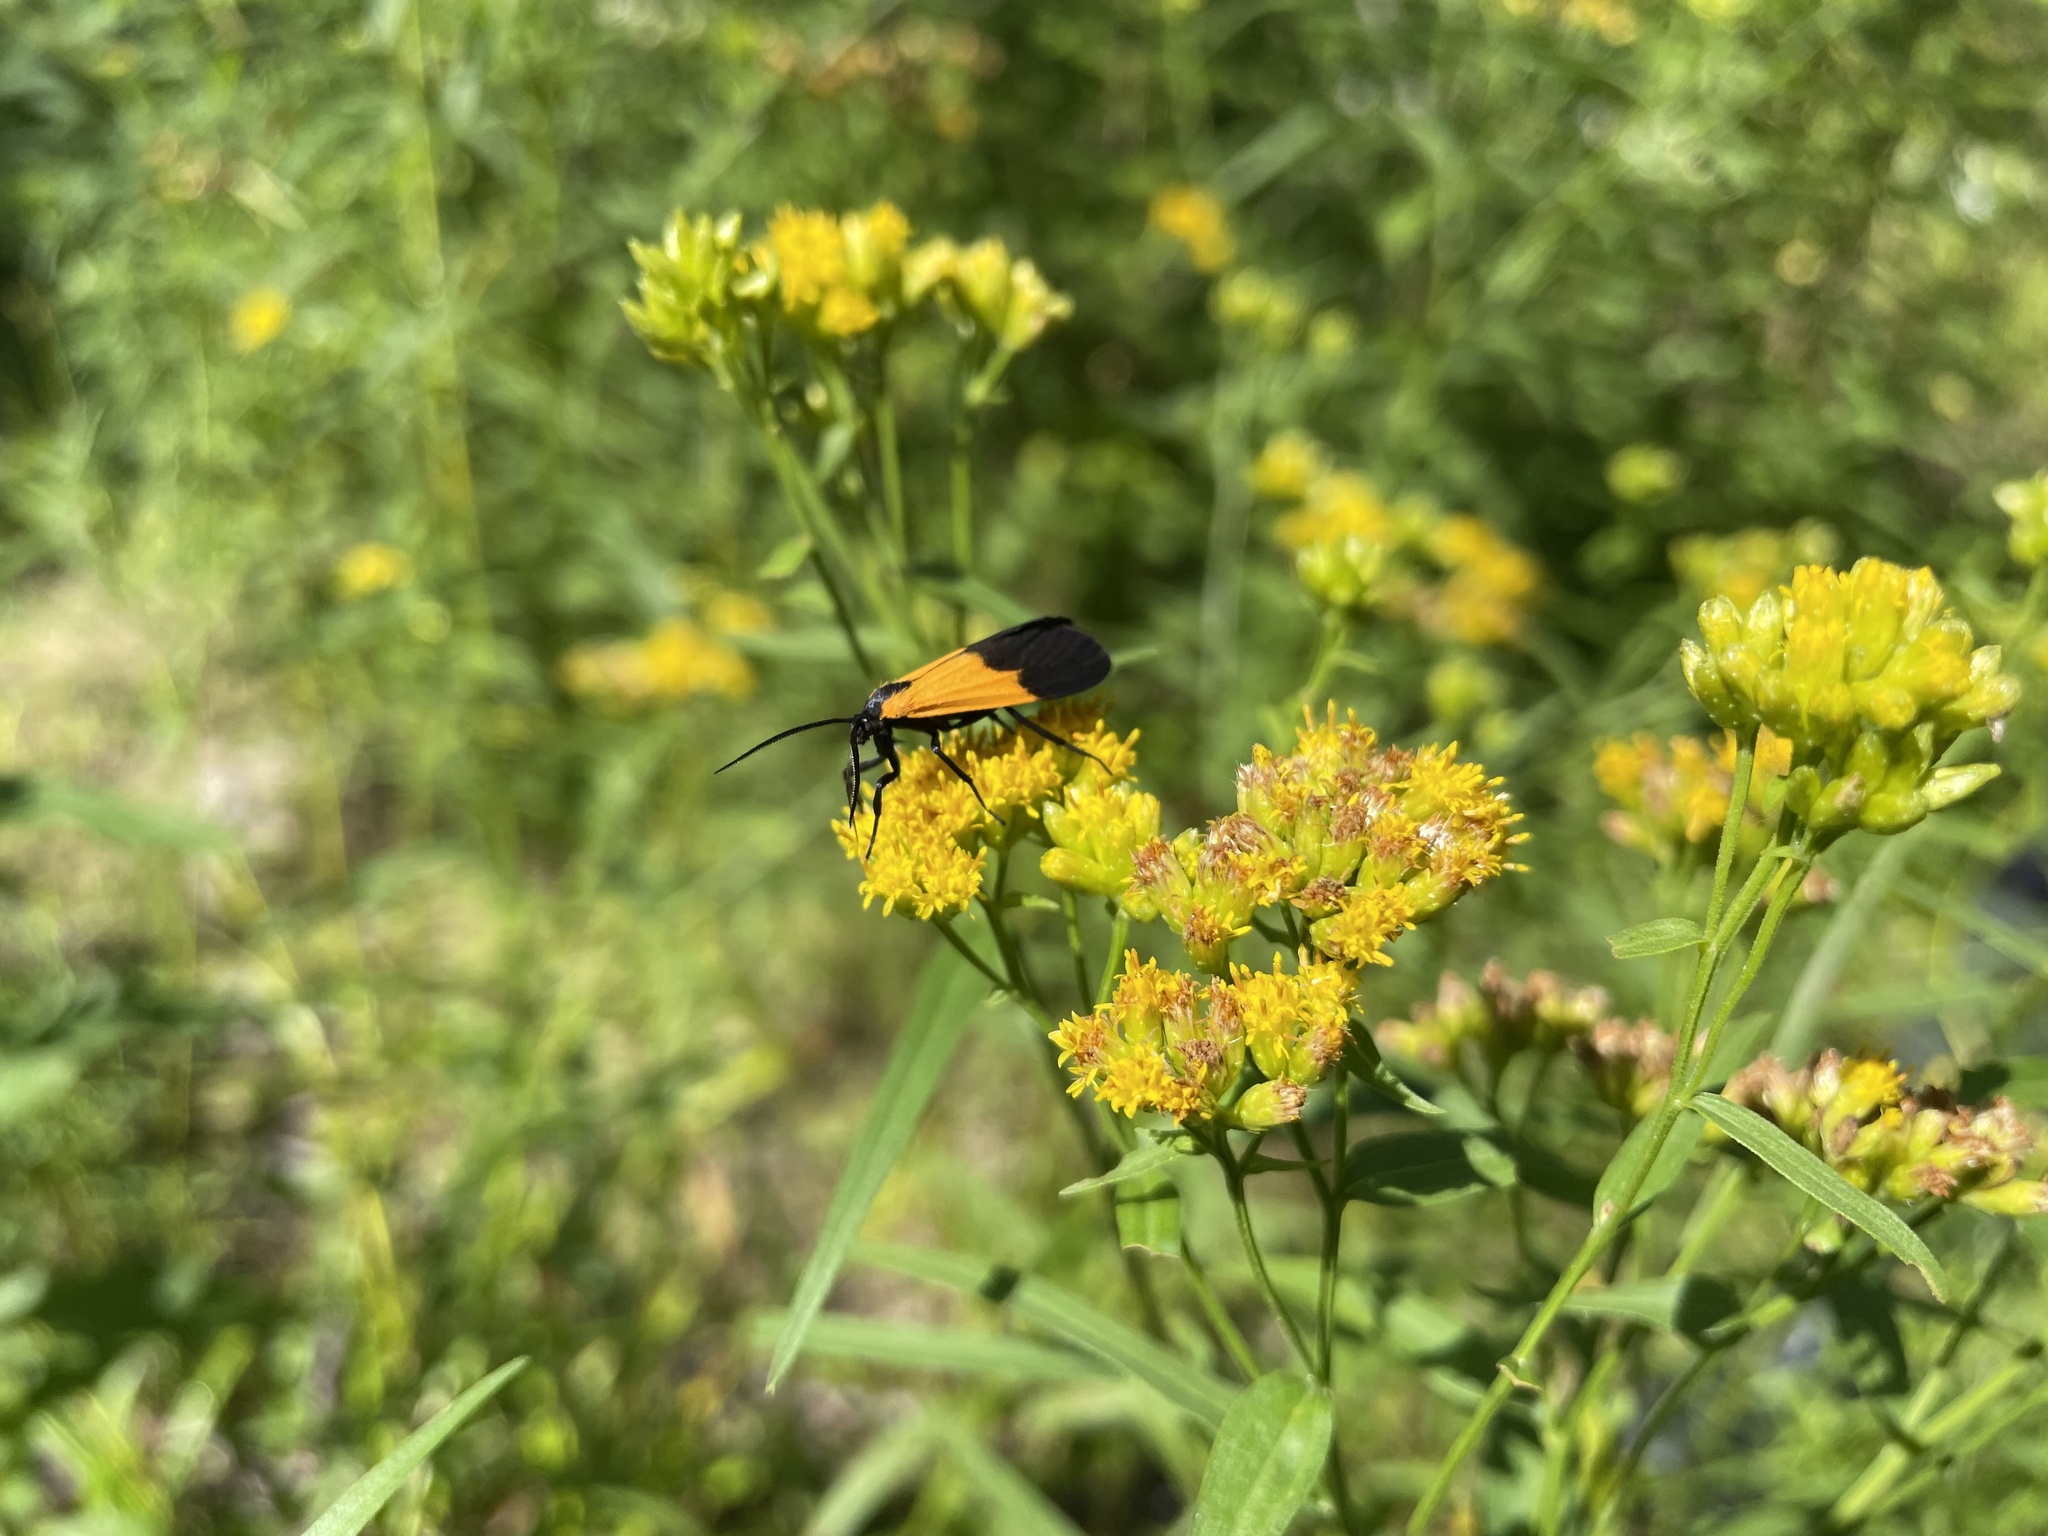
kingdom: Animalia
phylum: Arthropoda
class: Insecta
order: Lepidoptera
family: Erebidae
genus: Lycomorpha
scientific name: Lycomorpha pholus
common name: Black-and-yellow lichen moth
